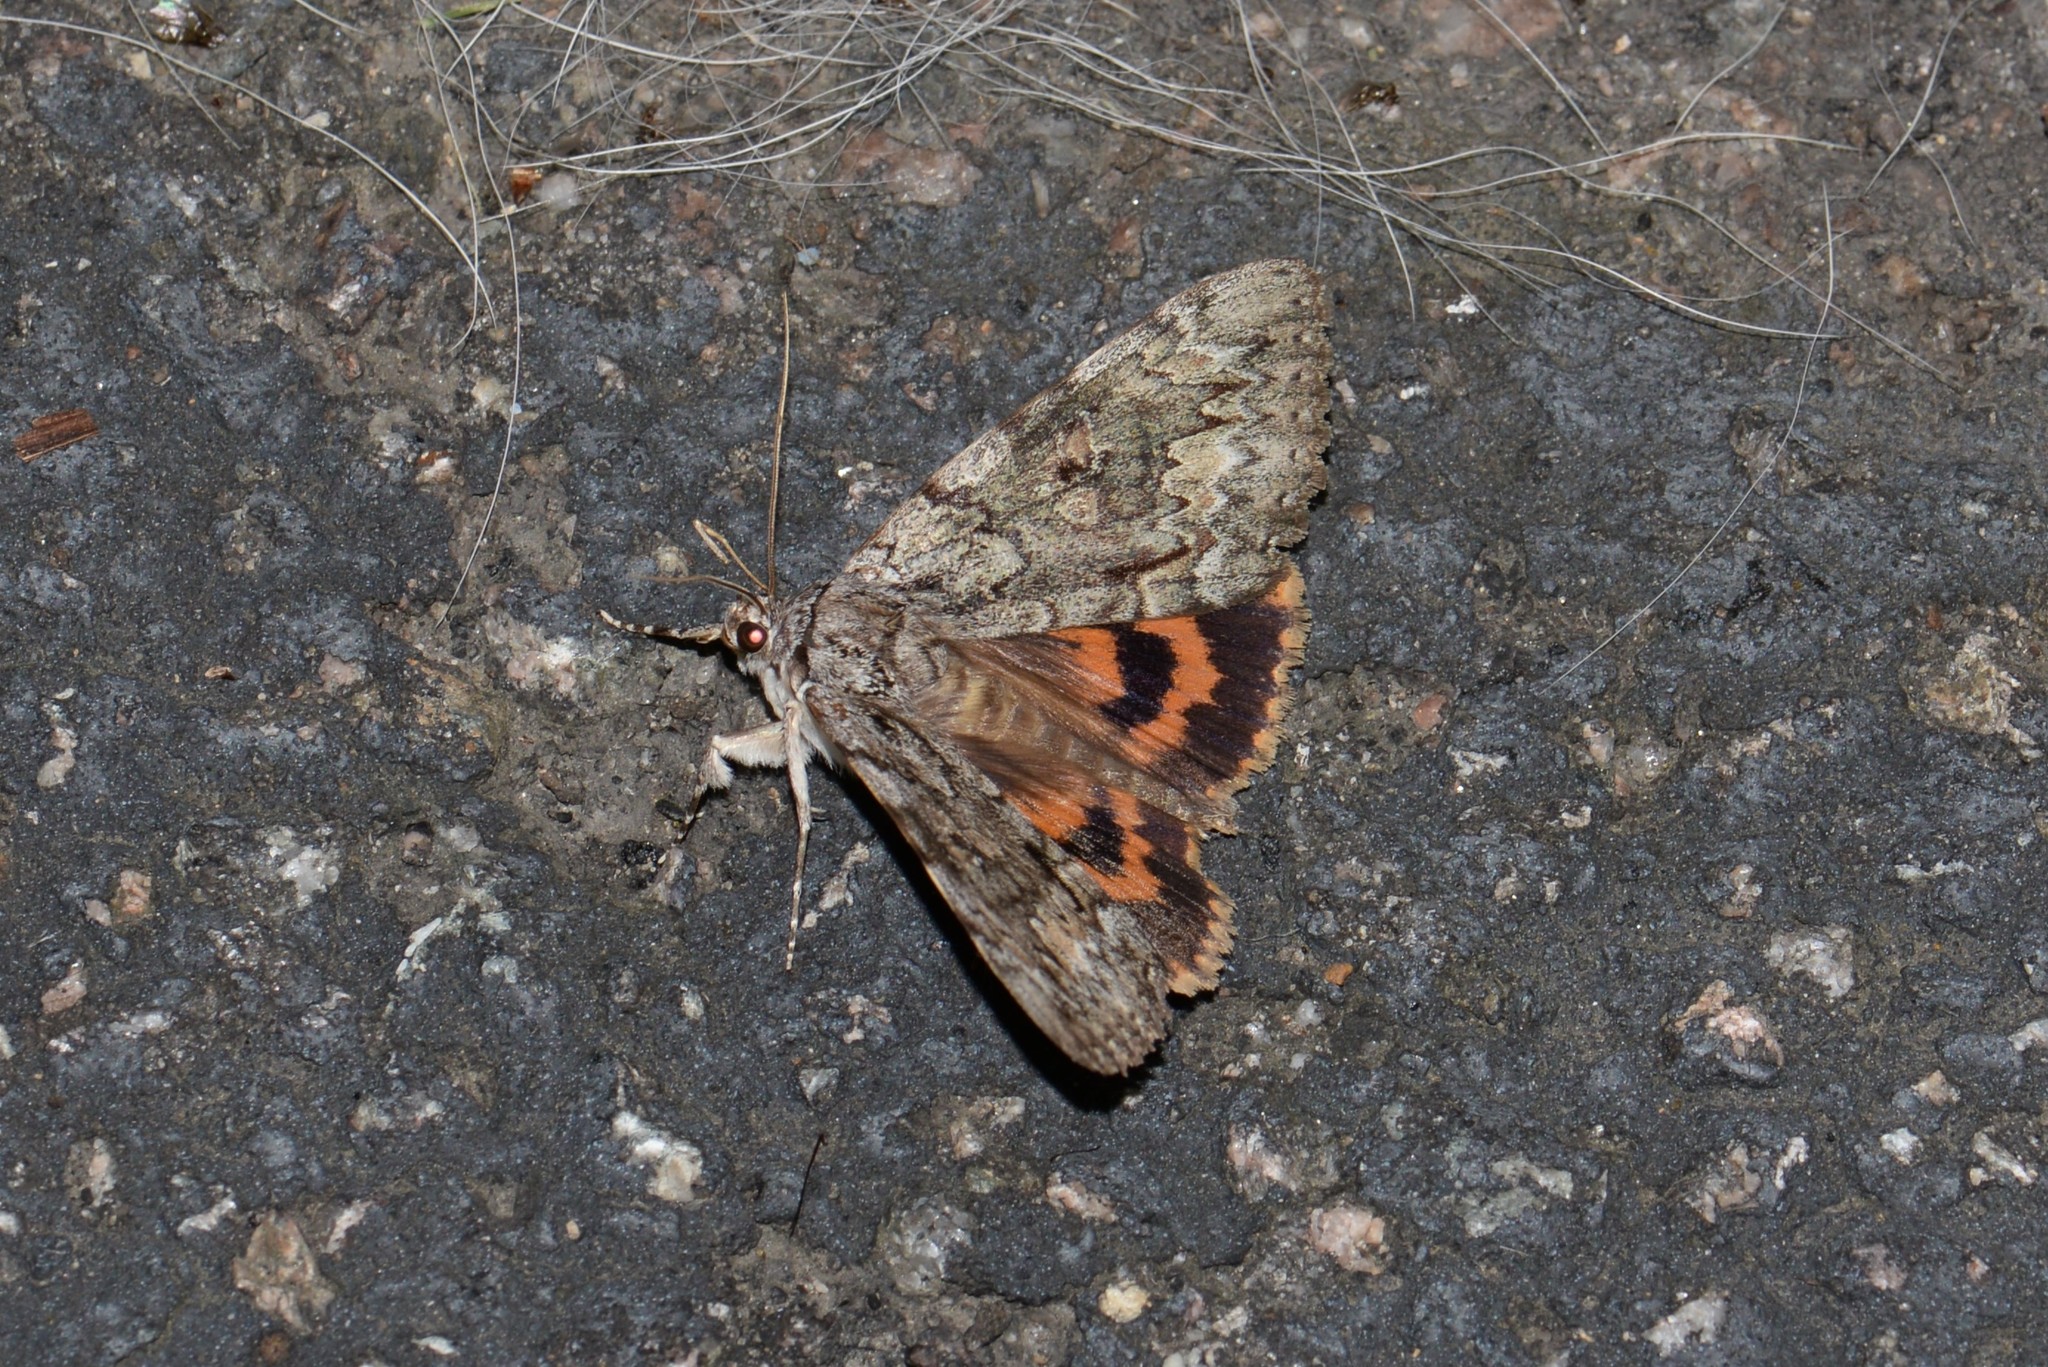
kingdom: Animalia
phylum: Arthropoda
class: Insecta
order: Lepidoptera
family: Erebidae
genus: Catocala
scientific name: Catocala palaeogama
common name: Oldwife underwing
